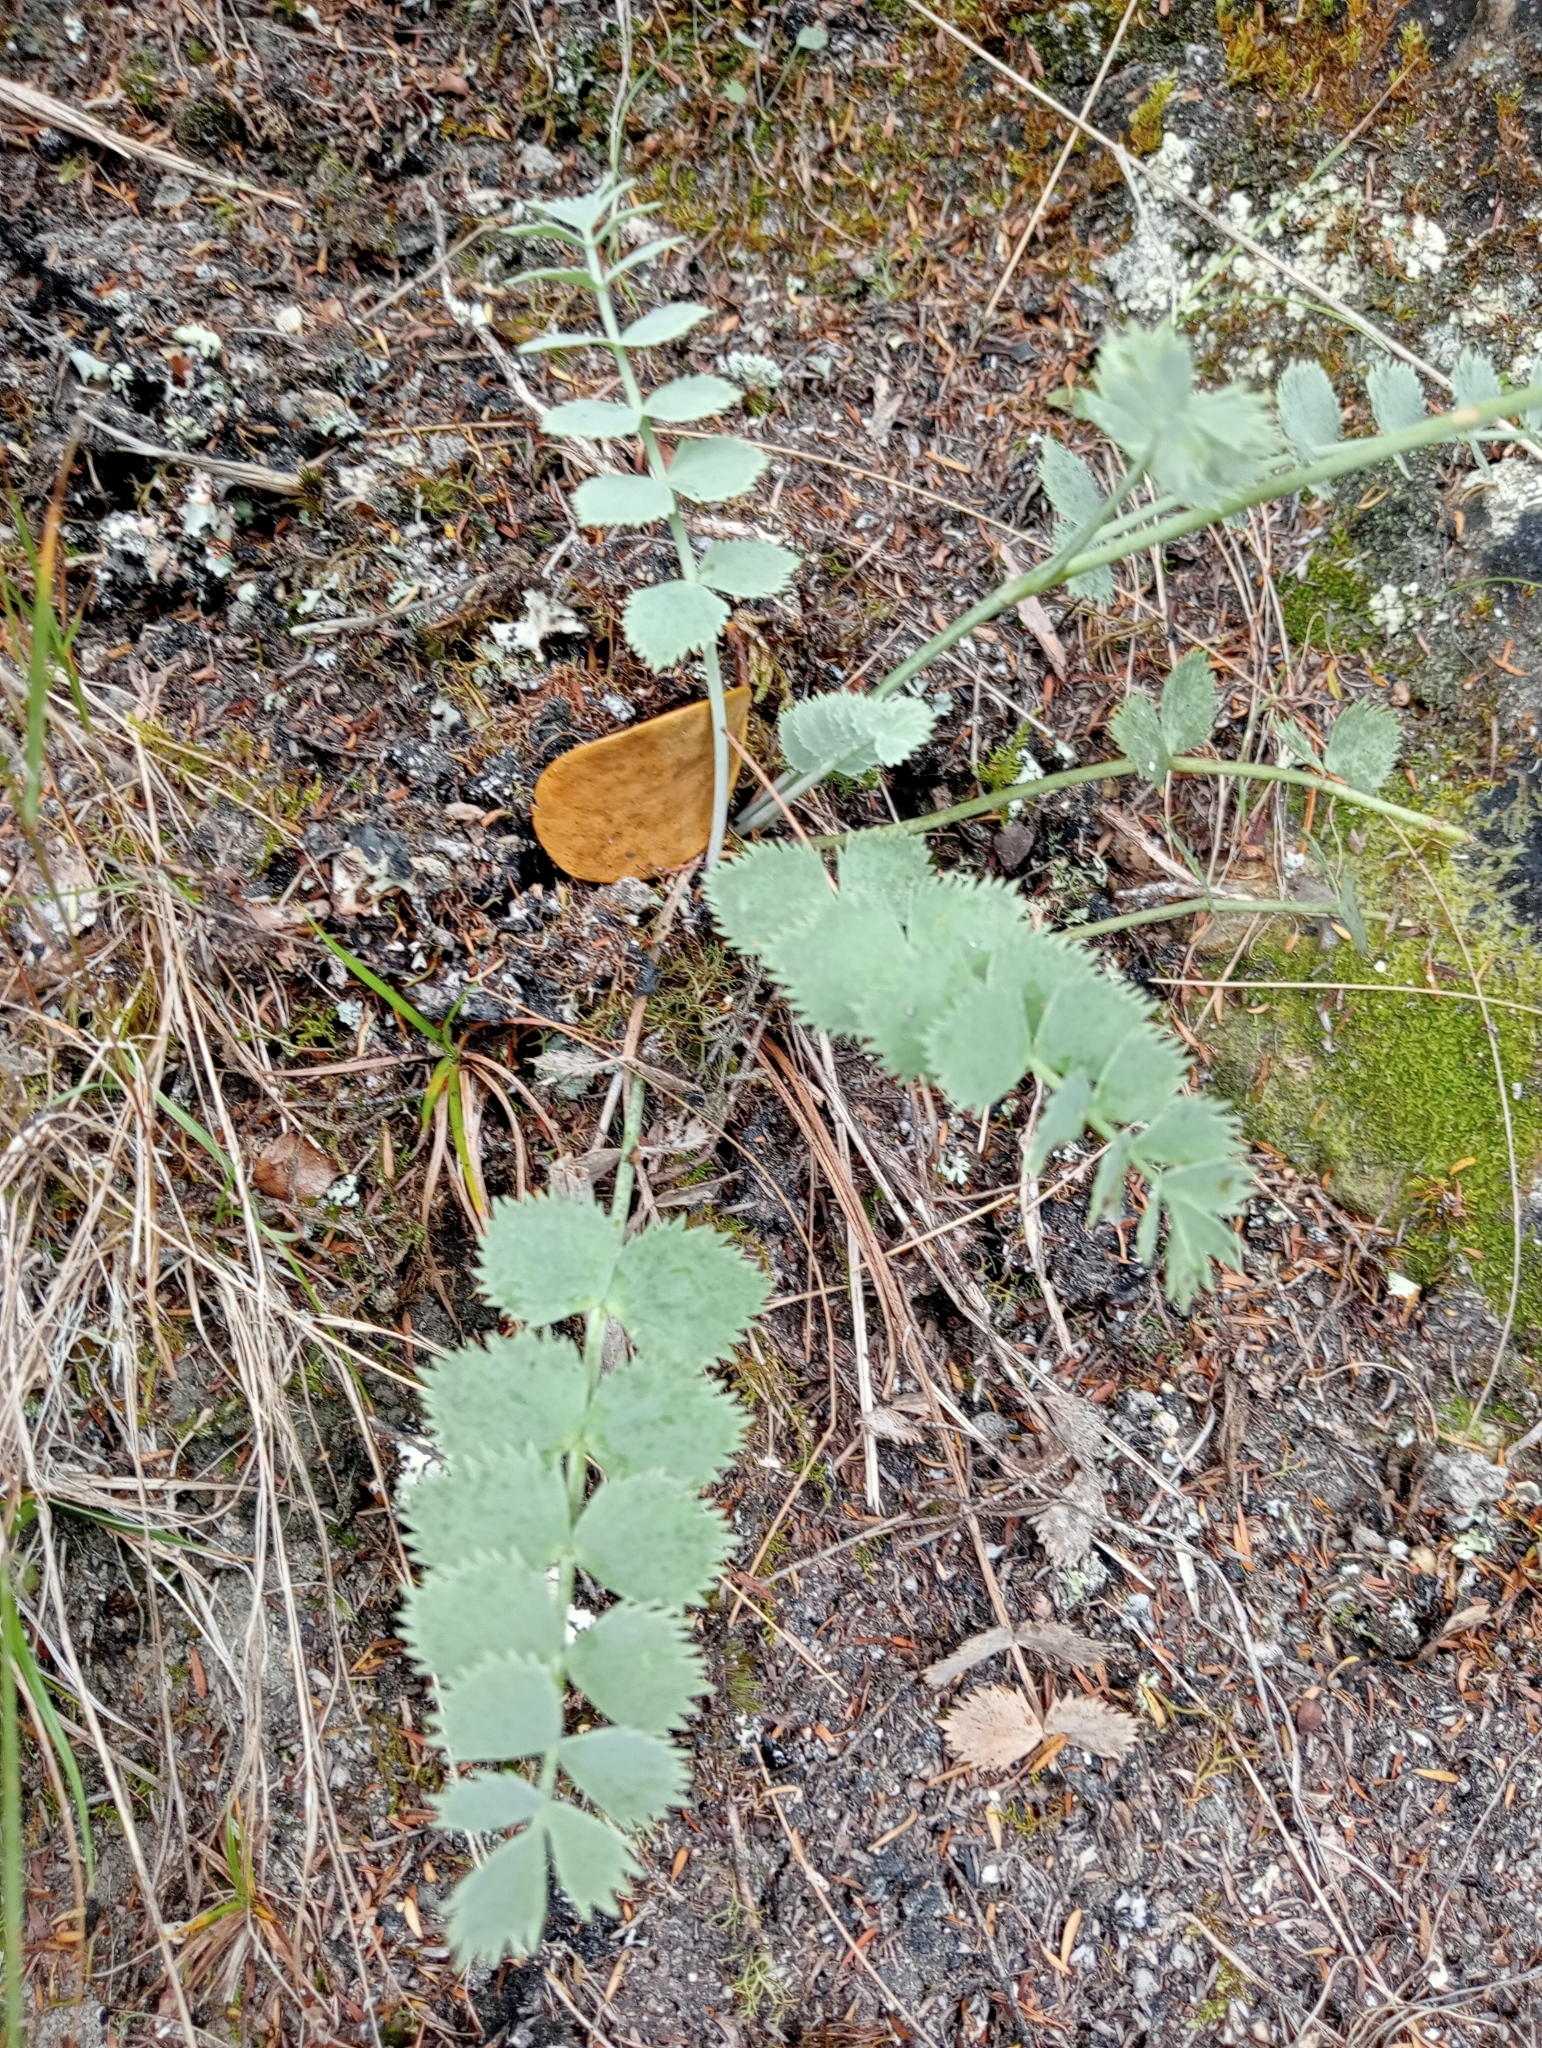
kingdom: Plantae
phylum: Tracheophyta
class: Magnoliopsida
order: Apiales
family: Apiaceae
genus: Gingidia
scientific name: Gingidia grisea
